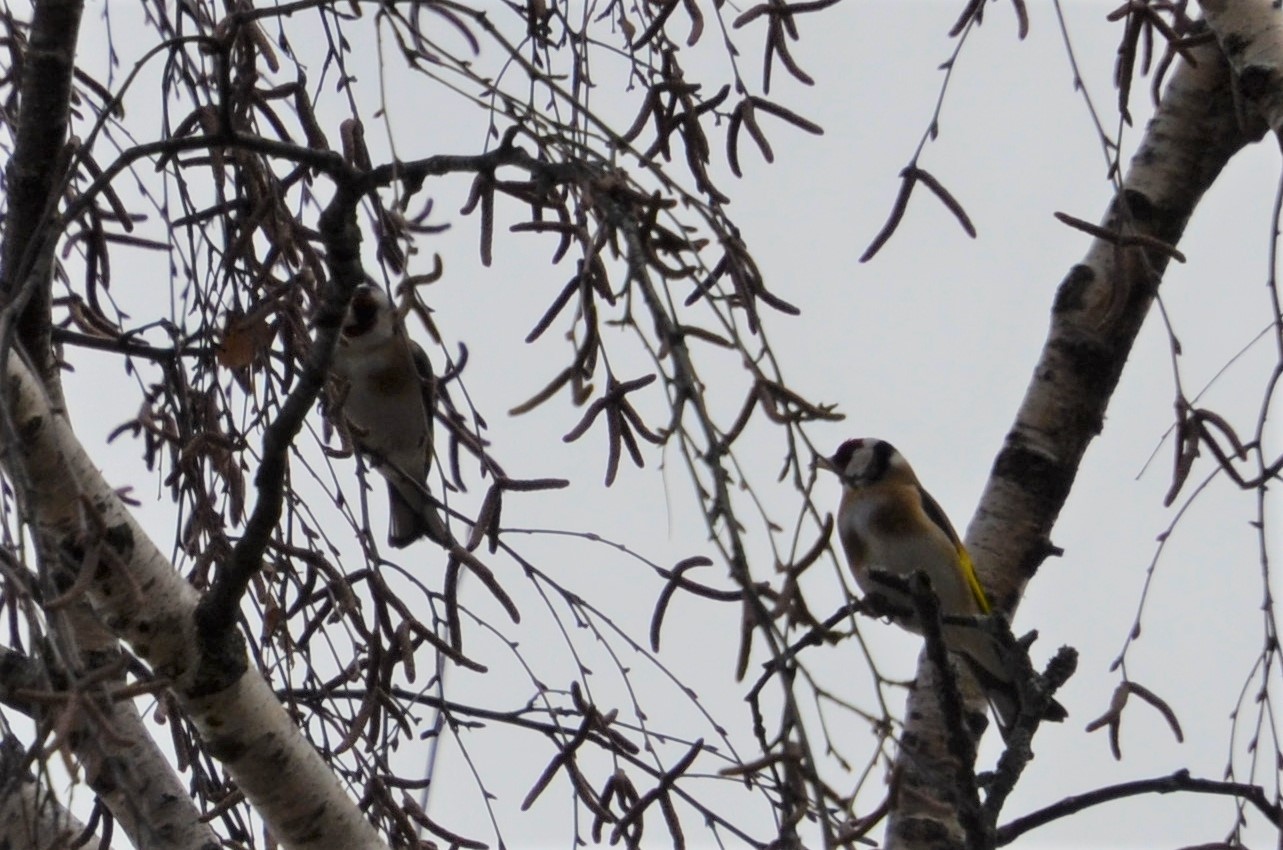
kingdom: Animalia
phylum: Chordata
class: Aves
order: Passeriformes
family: Fringillidae
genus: Carduelis
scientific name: Carduelis carduelis
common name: European goldfinch
